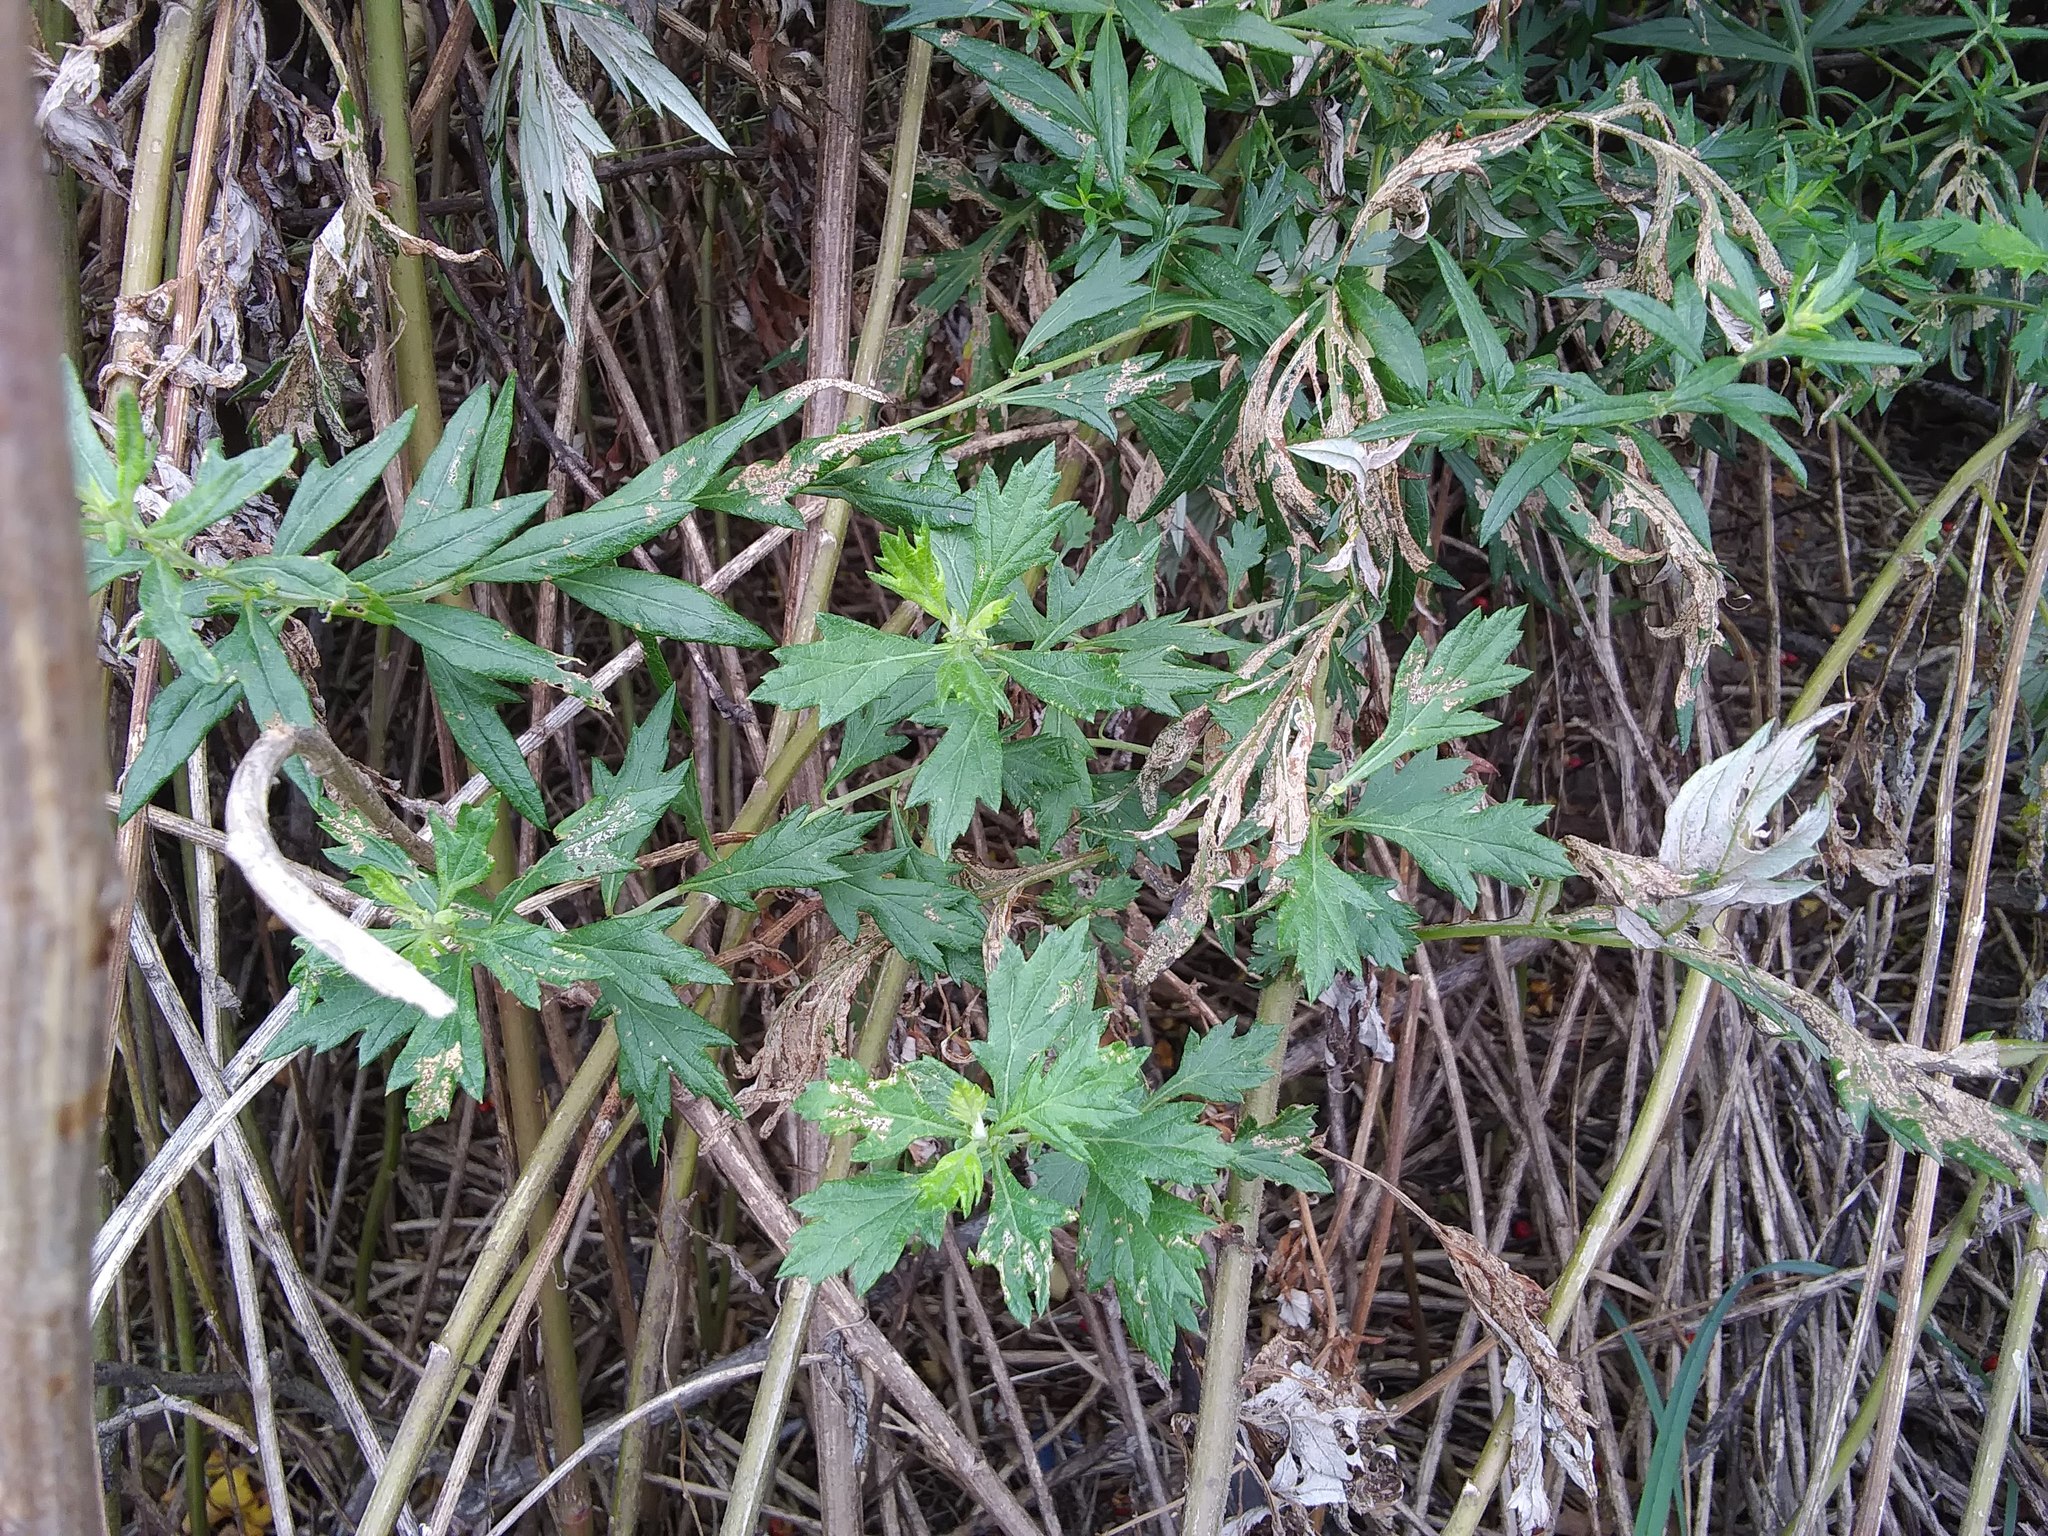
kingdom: Plantae
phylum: Tracheophyta
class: Magnoliopsida
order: Asterales
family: Asteraceae
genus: Artemisia
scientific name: Artemisia vulgaris
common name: Mugwort
